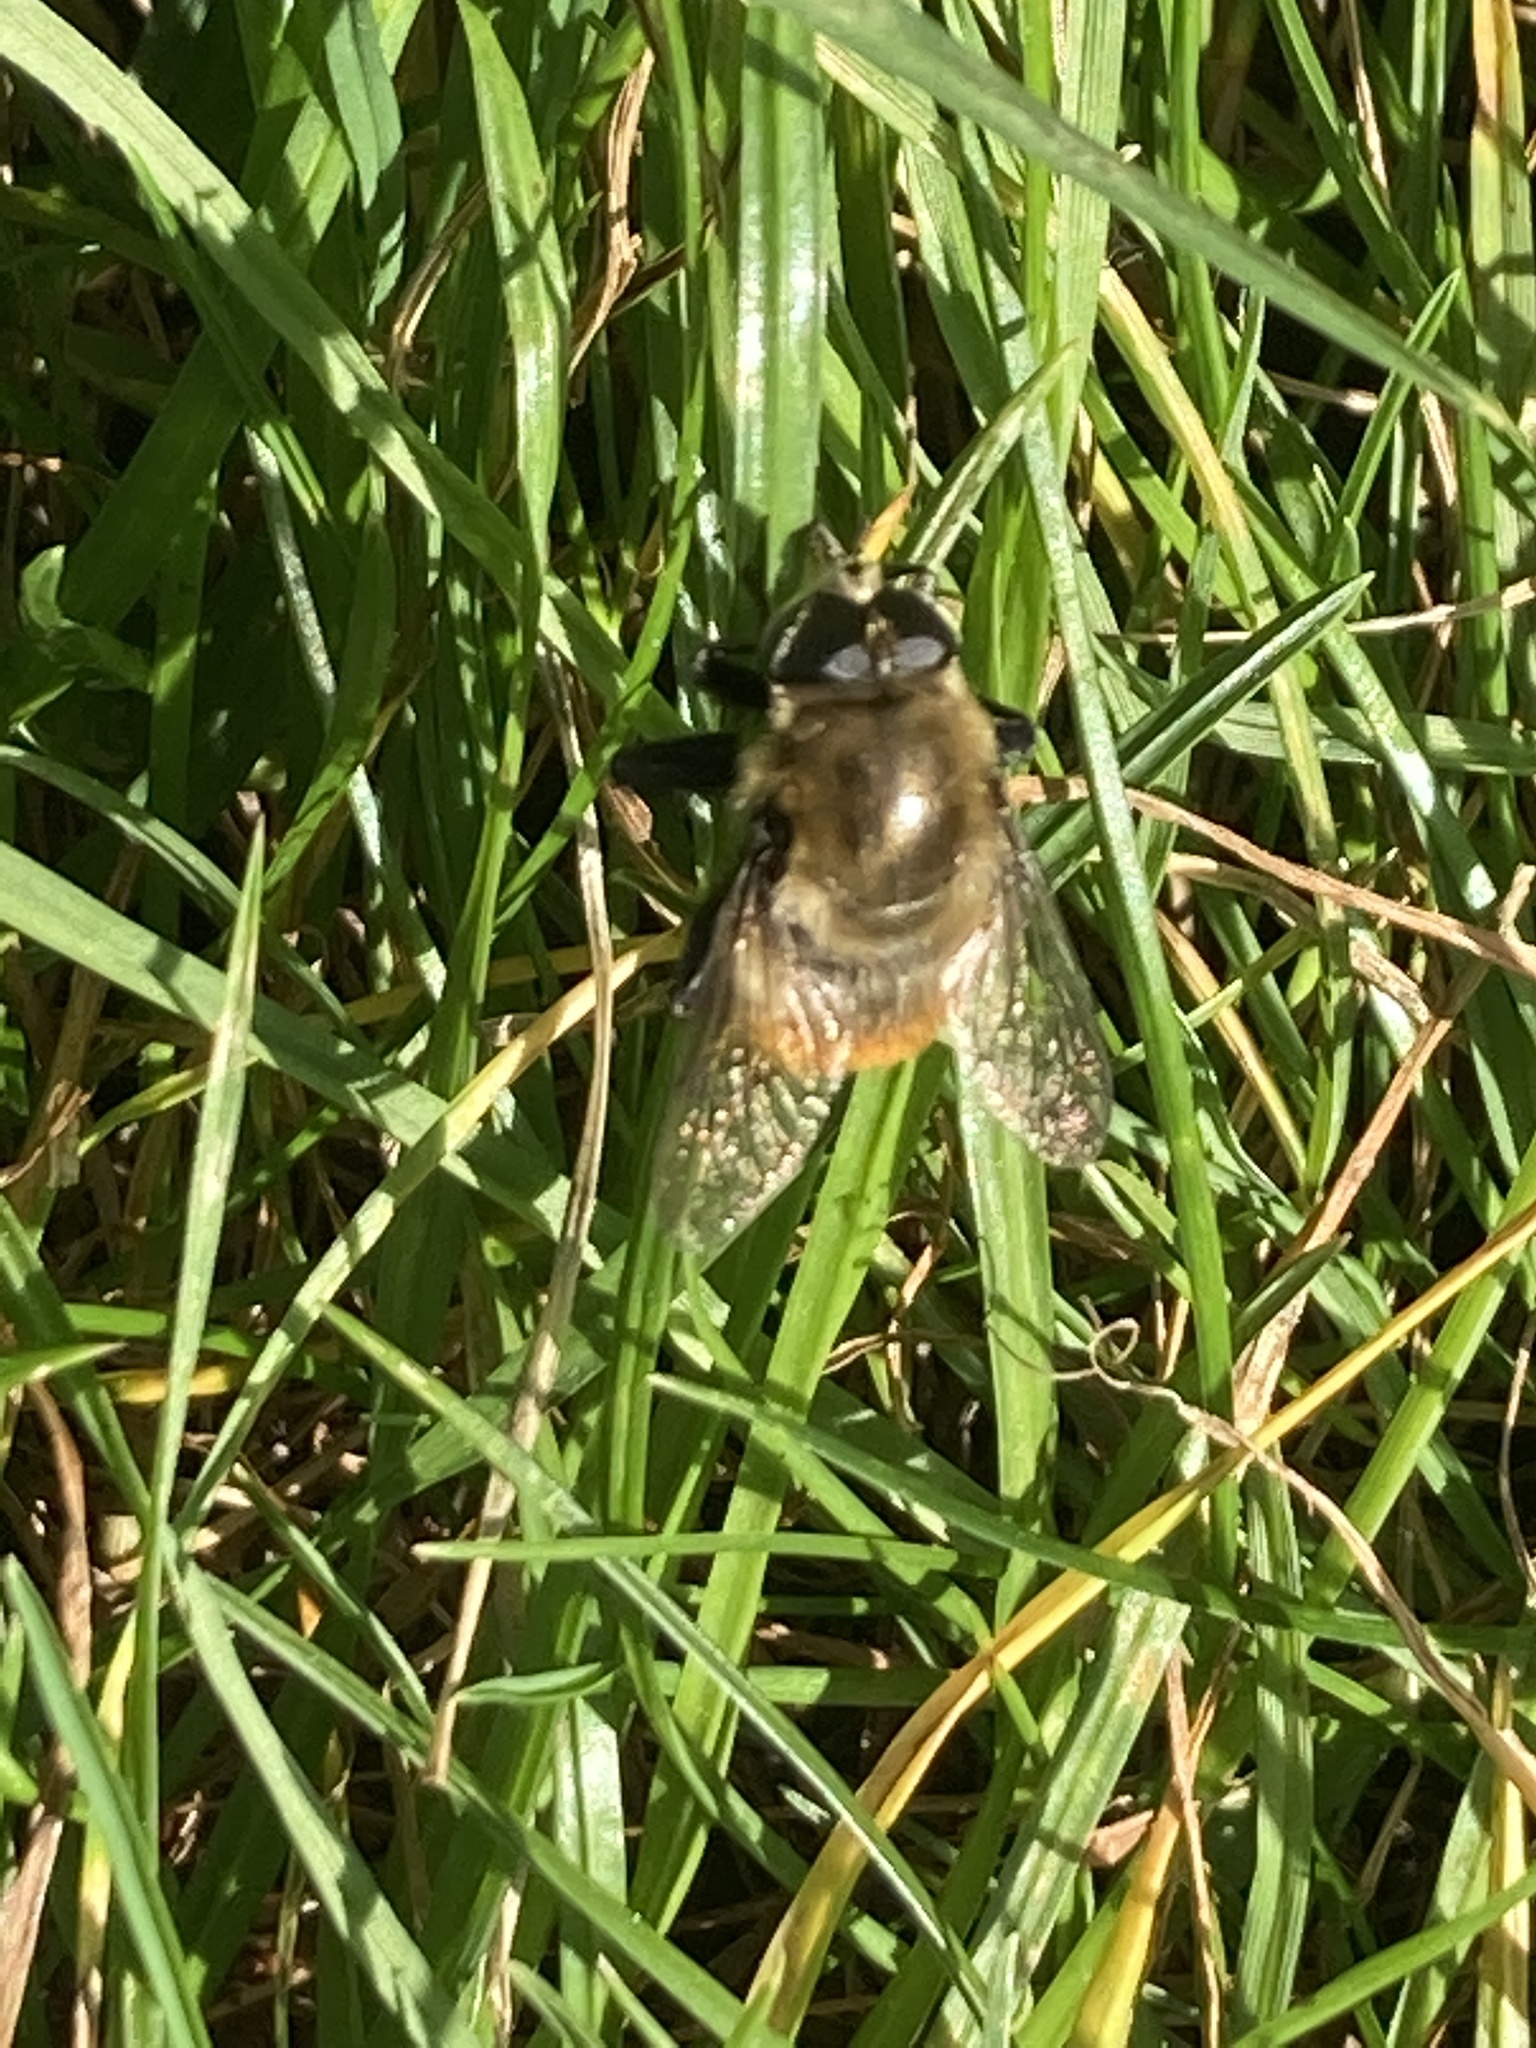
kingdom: Animalia
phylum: Arthropoda
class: Insecta
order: Diptera
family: Syrphidae
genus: Merodon
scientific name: Merodon equestris
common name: Greater bulb-fly
